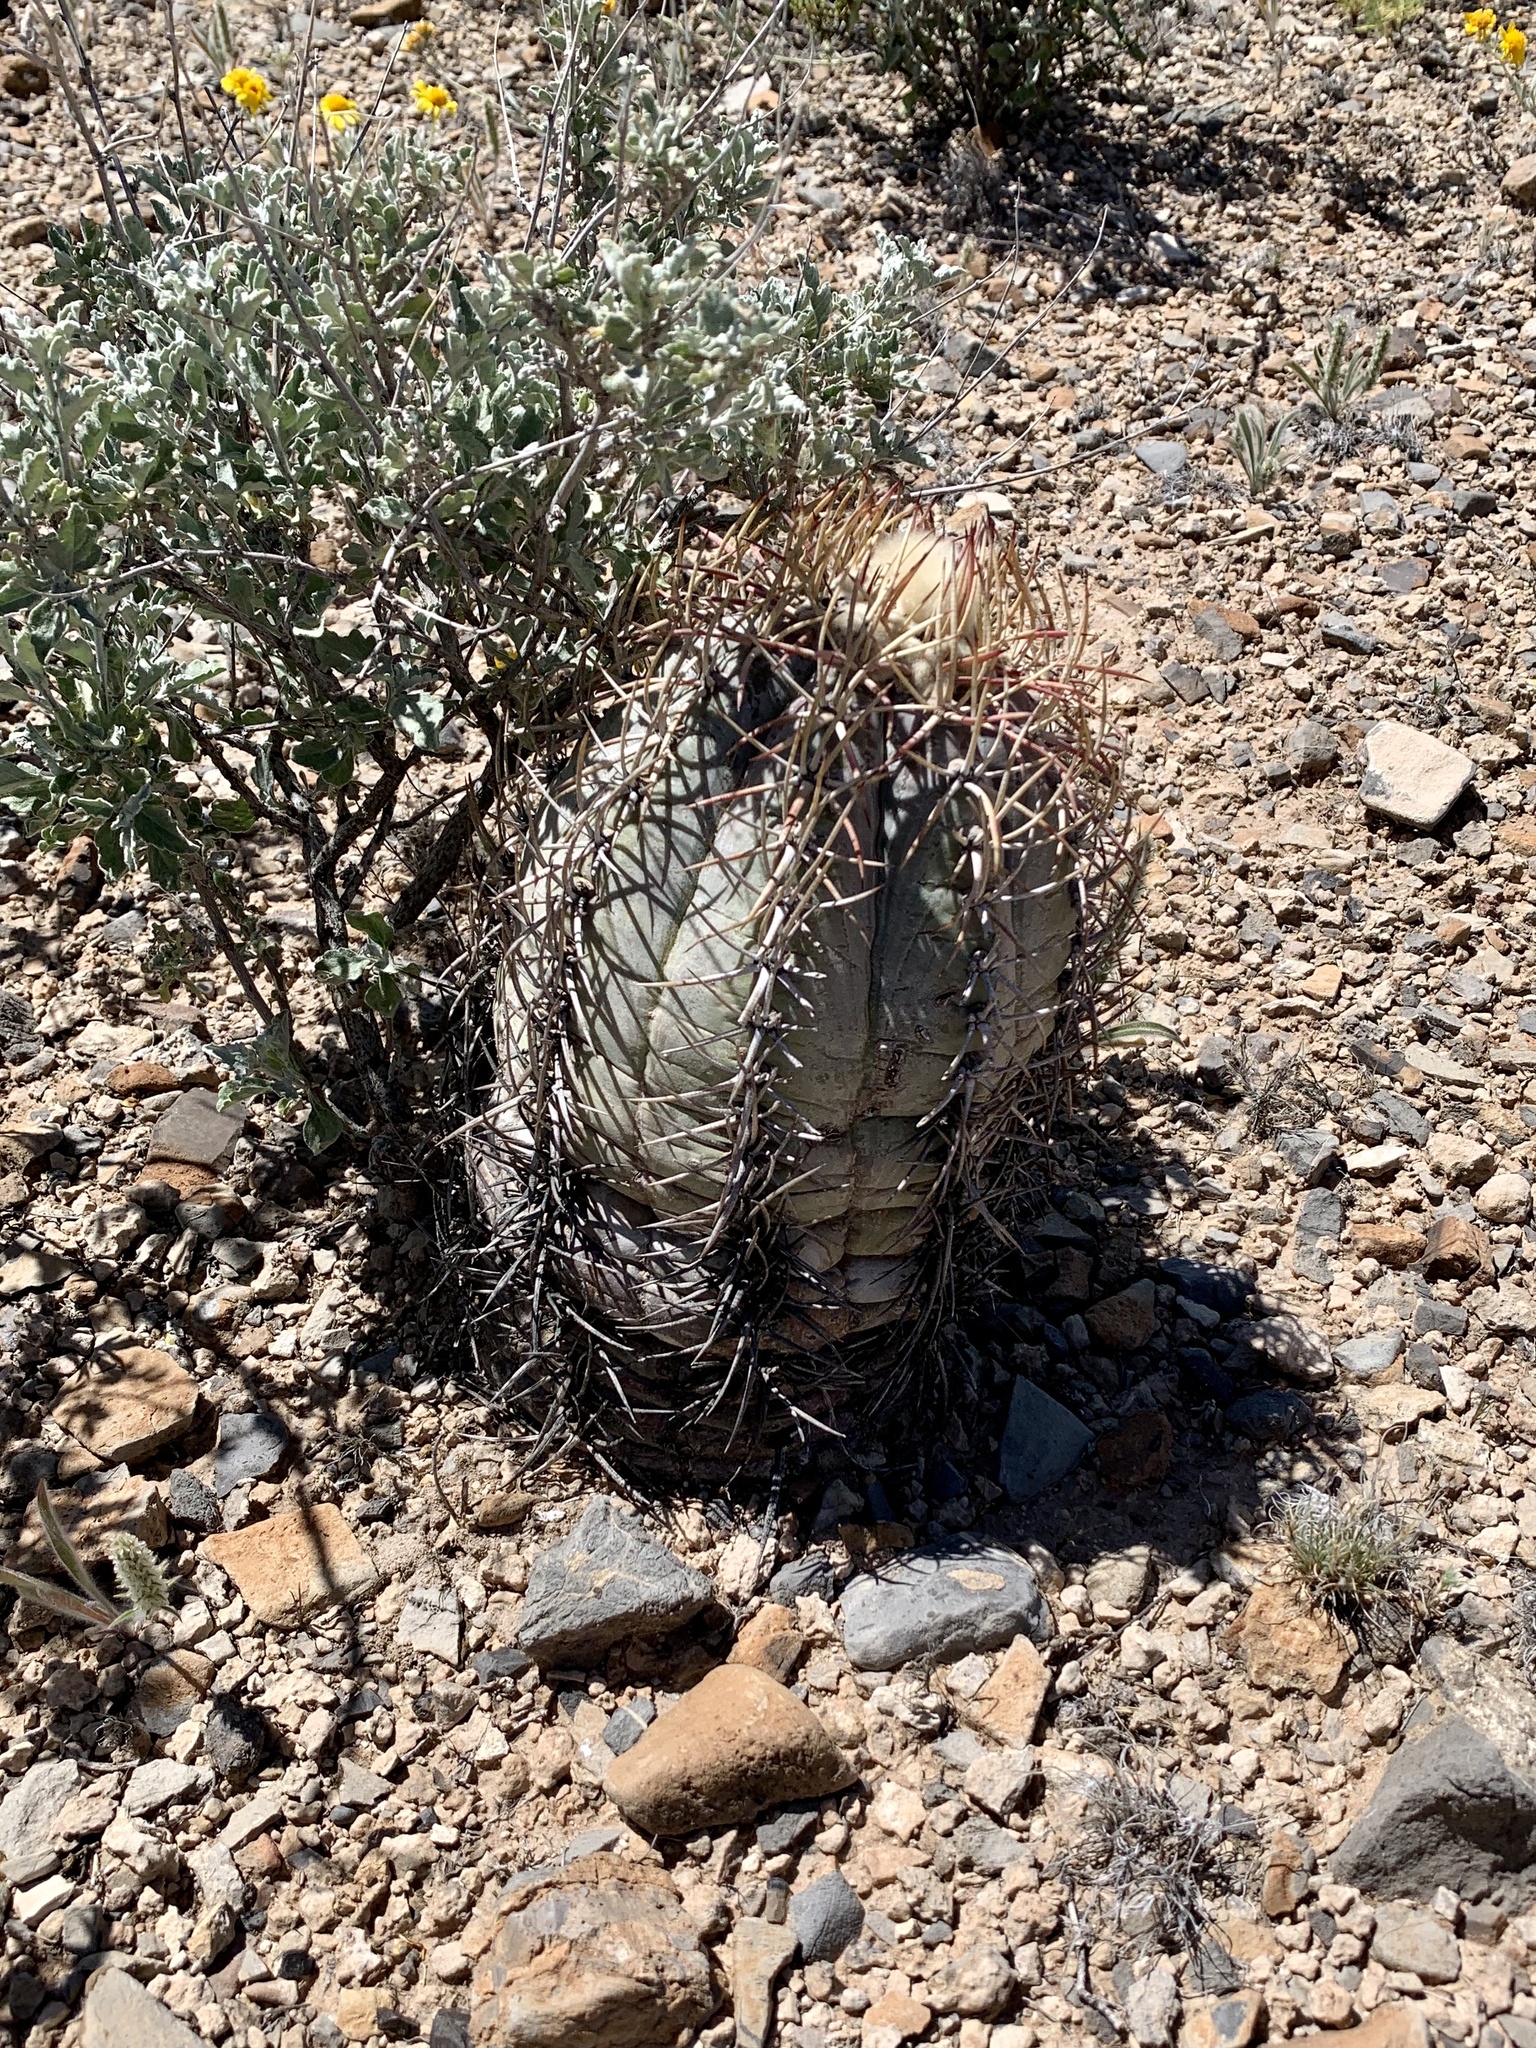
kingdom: Plantae
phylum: Tracheophyta
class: Magnoliopsida
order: Caryophyllales
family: Cactaceae
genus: Echinocactus
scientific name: Echinocactus horizonthalonius
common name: Devilshead
